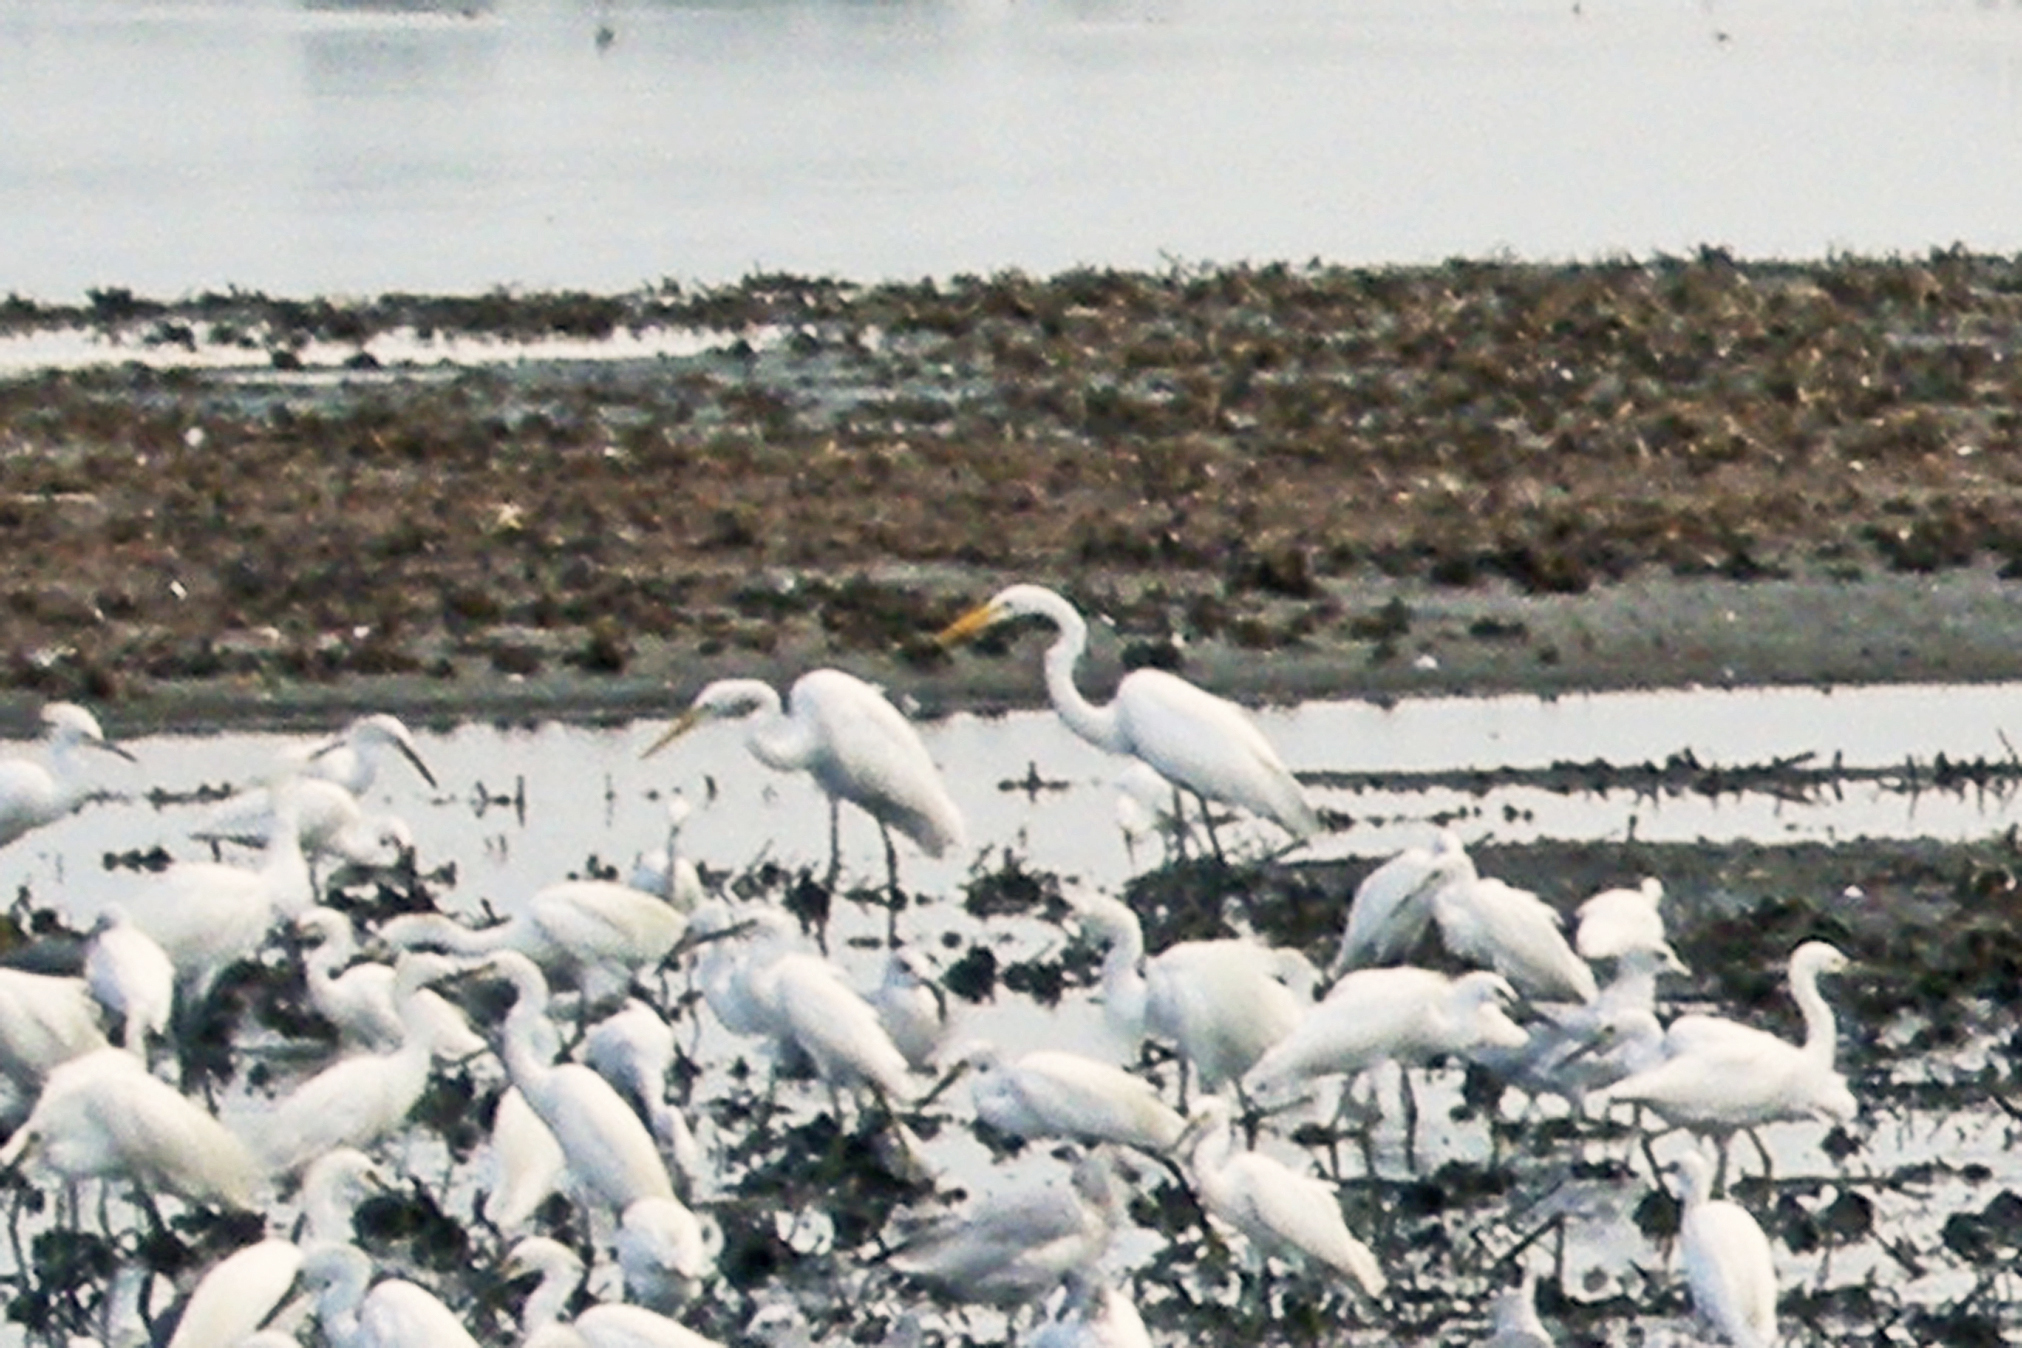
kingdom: Animalia
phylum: Chordata
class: Aves
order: Pelecaniformes
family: Ardeidae
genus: Ardea
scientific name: Ardea alba
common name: Great egret
